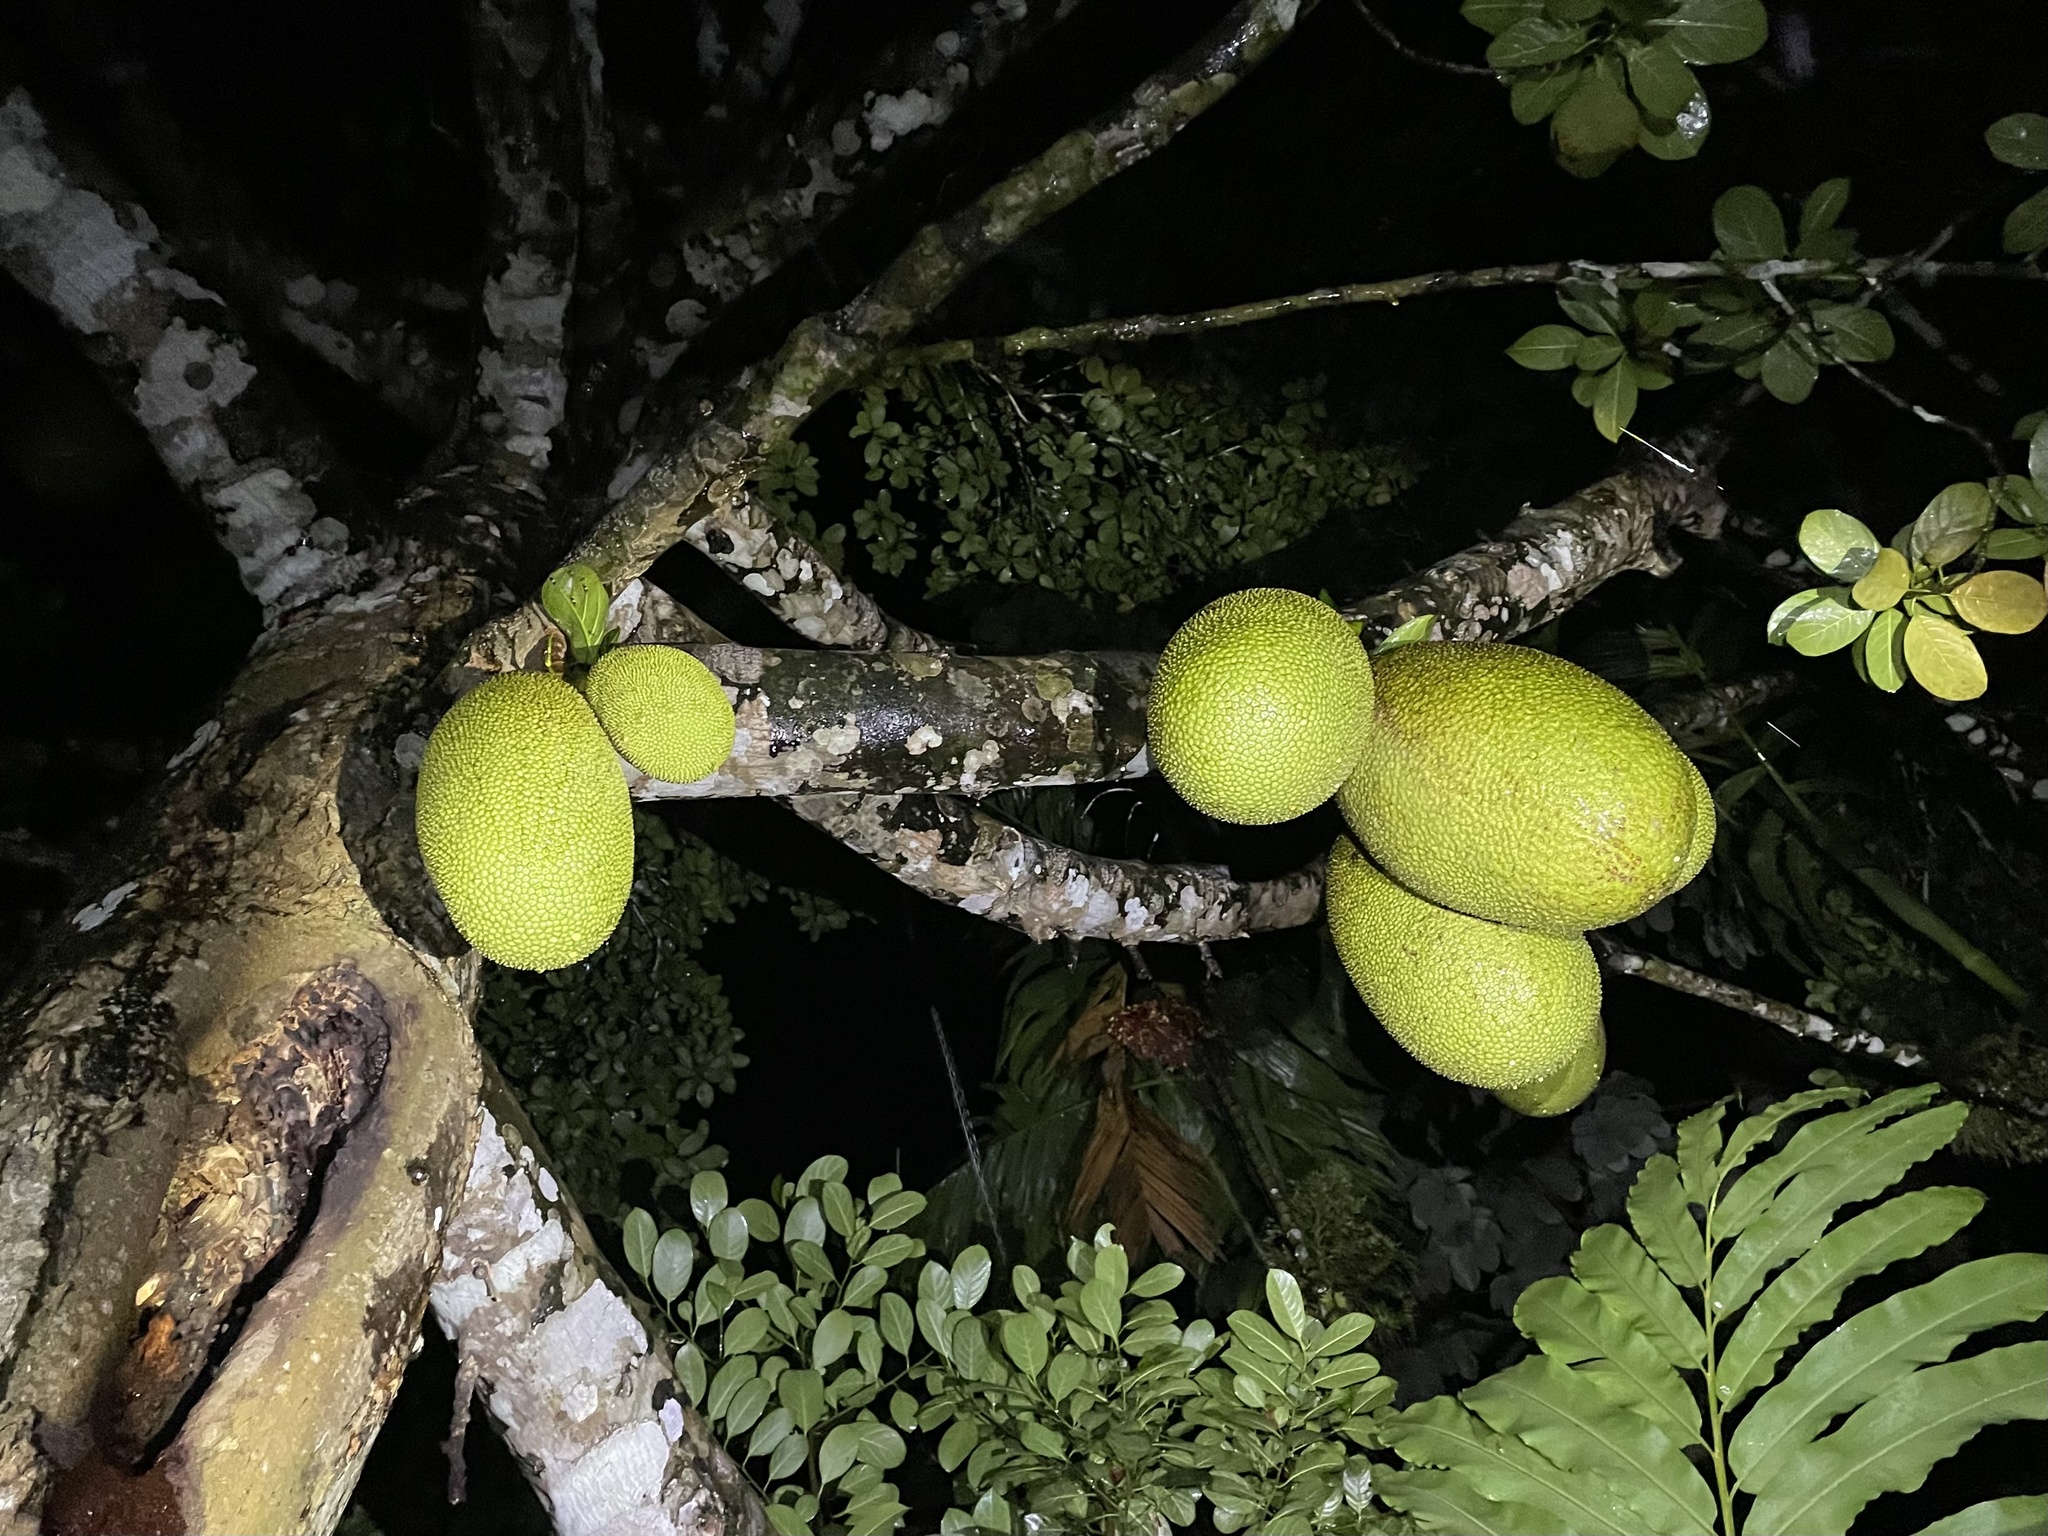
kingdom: Plantae
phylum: Tracheophyta
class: Magnoliopsida
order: Rosales
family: Moraceae
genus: Artocarpus
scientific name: Artocarpus heterophyllus
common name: Jackfruit
